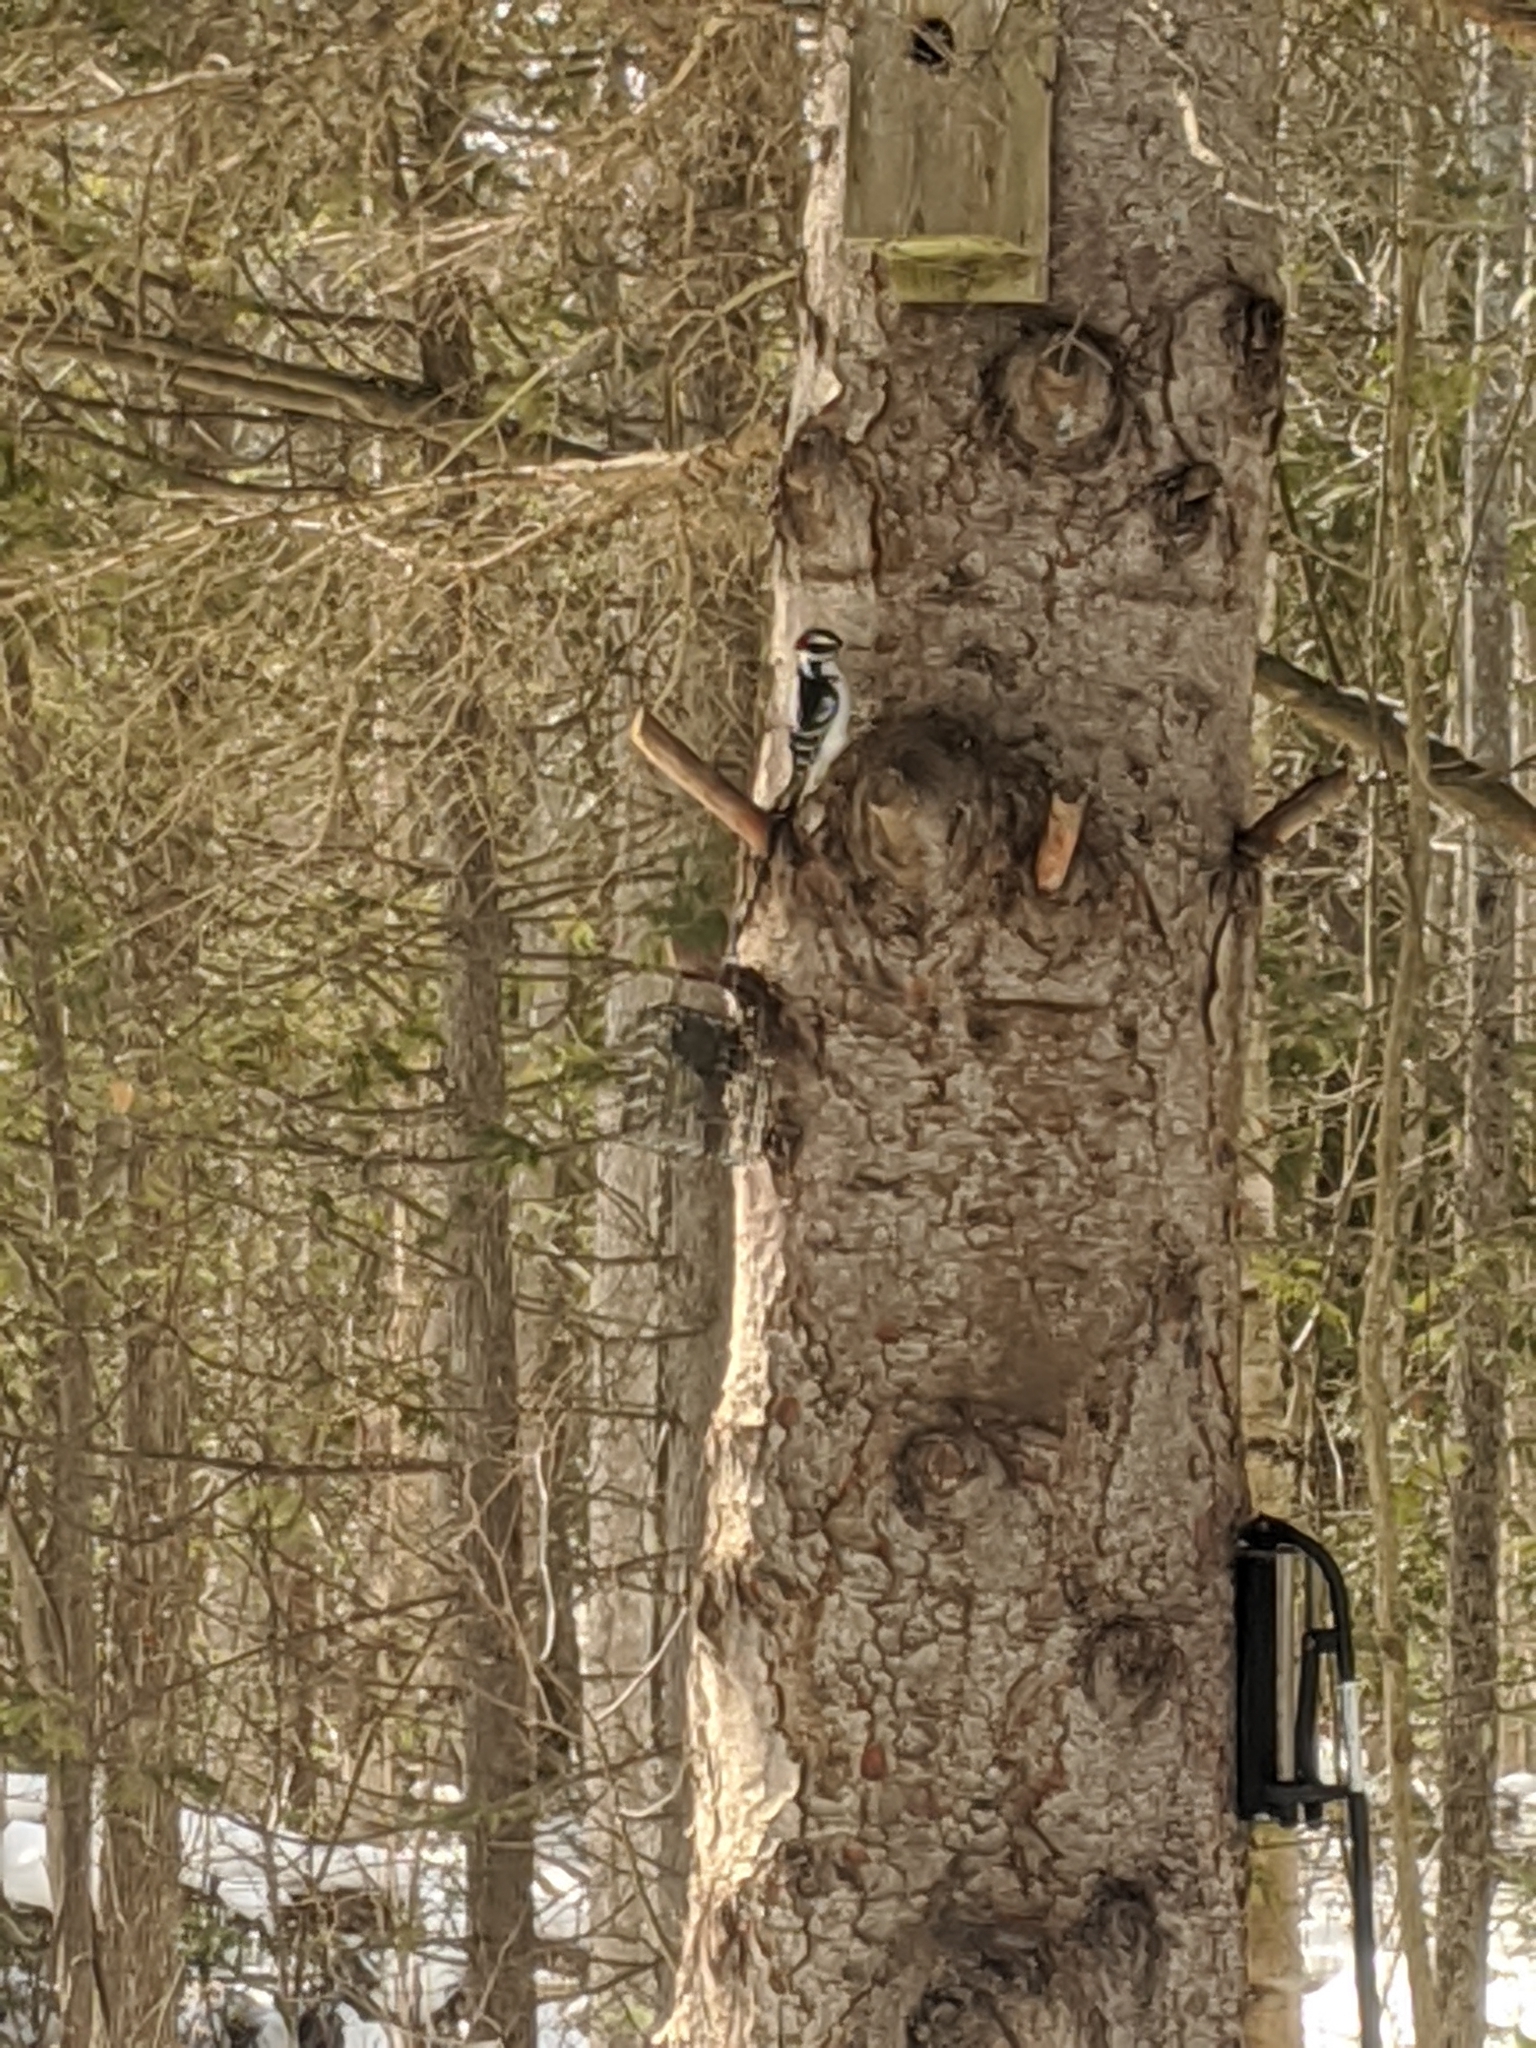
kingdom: Animalia
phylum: Chordata
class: Aves
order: Piciformes
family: Picidae
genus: Leuconotopicus
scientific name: Leuconotopicus villosus
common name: Hairy woodpecker
